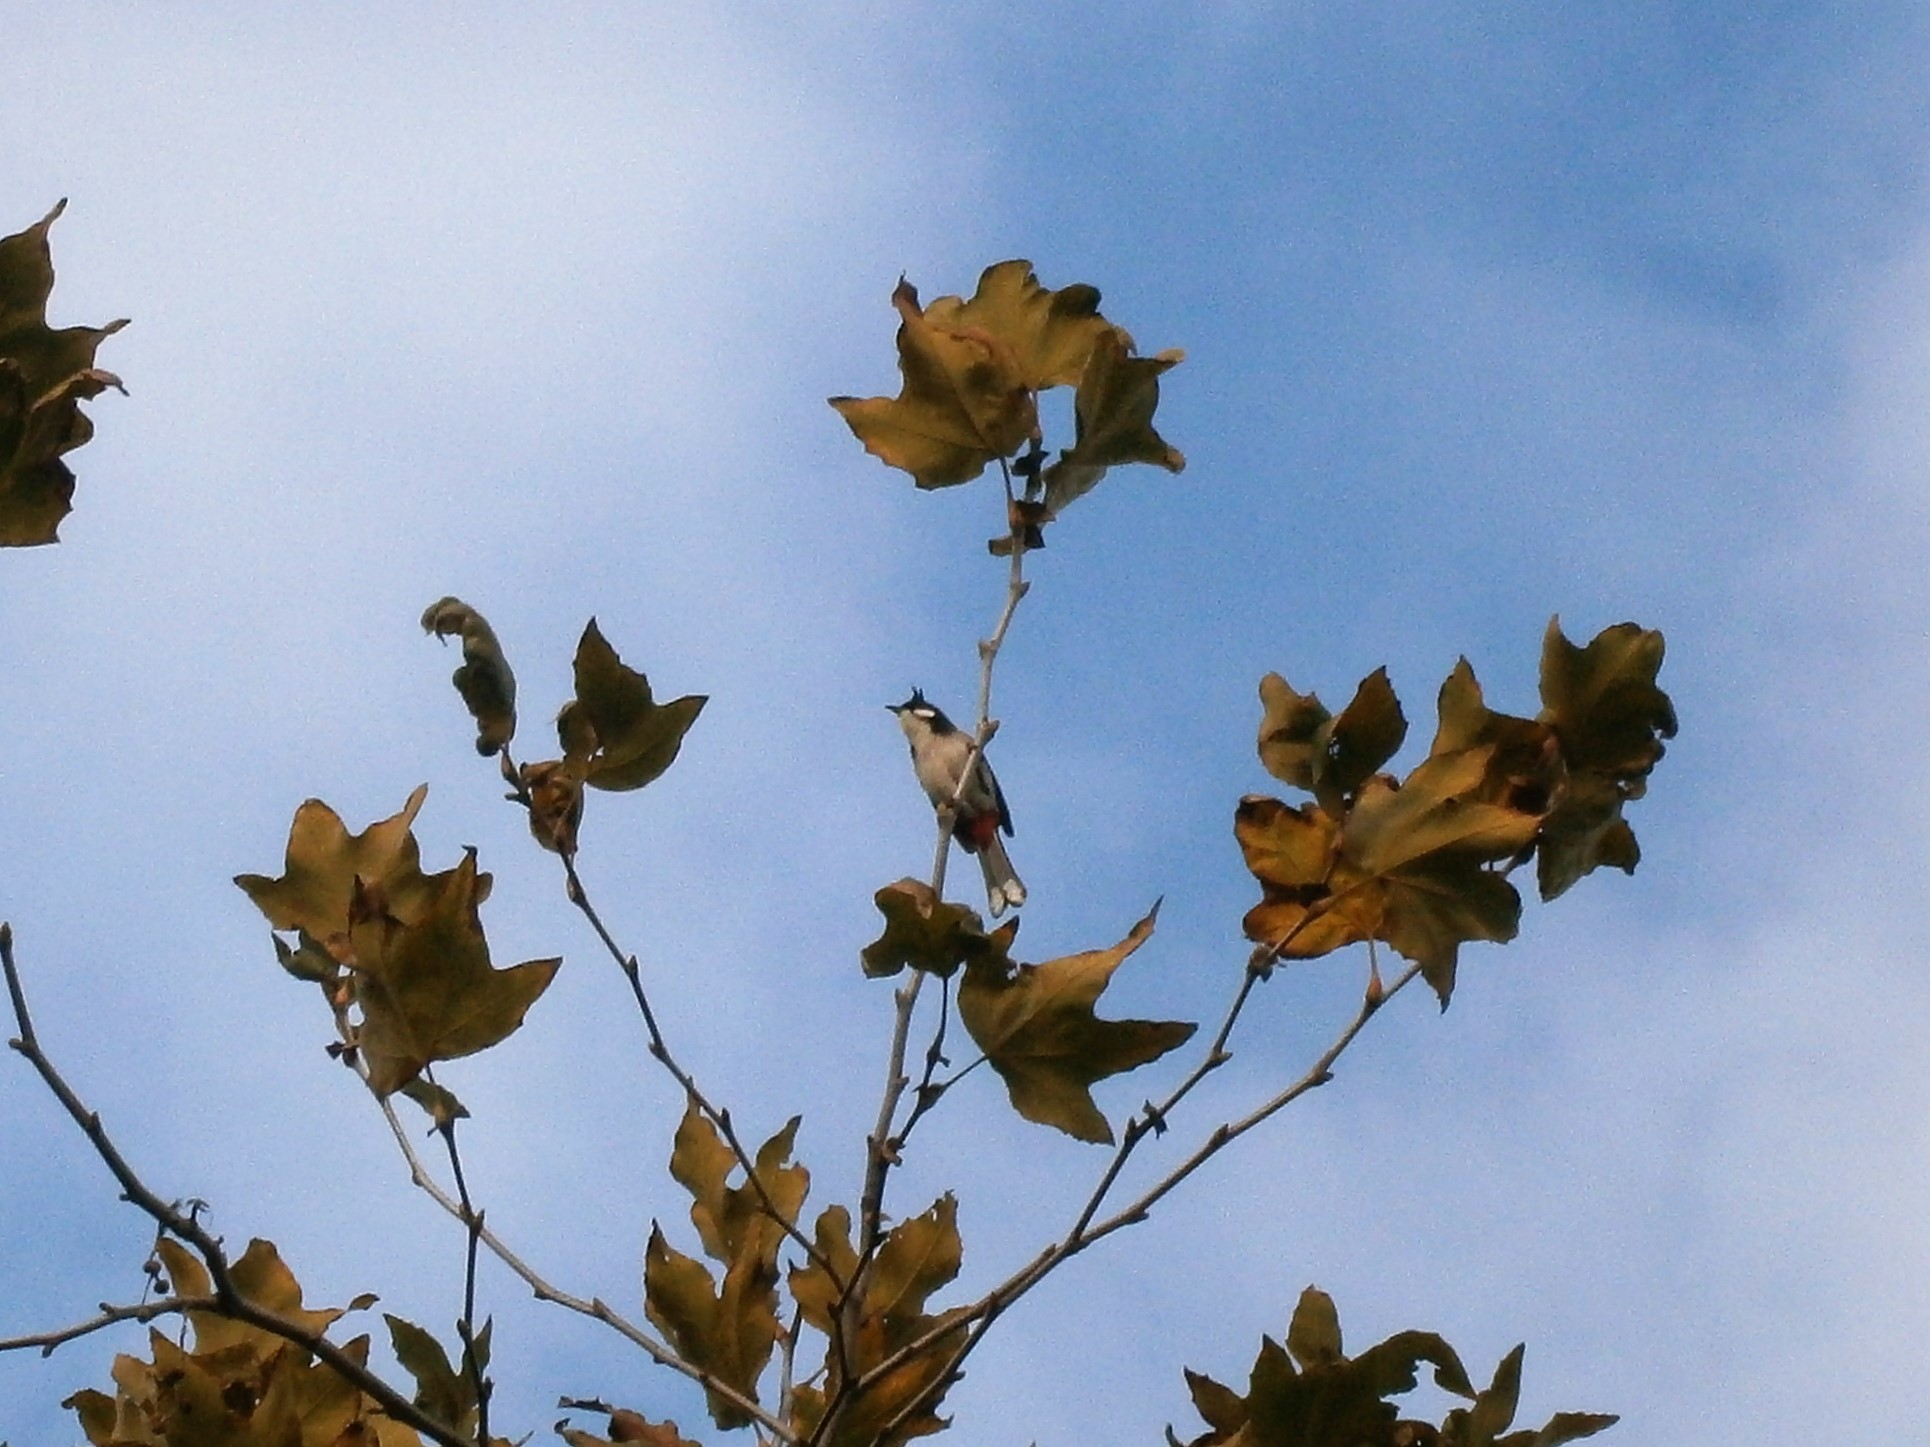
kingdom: Animalia
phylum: Chordata
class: Aves
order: Passeriformes
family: Pycnonotidae
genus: Pycnonotus
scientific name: Pycnonotus jocosus
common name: Red-whiskered bulbul
